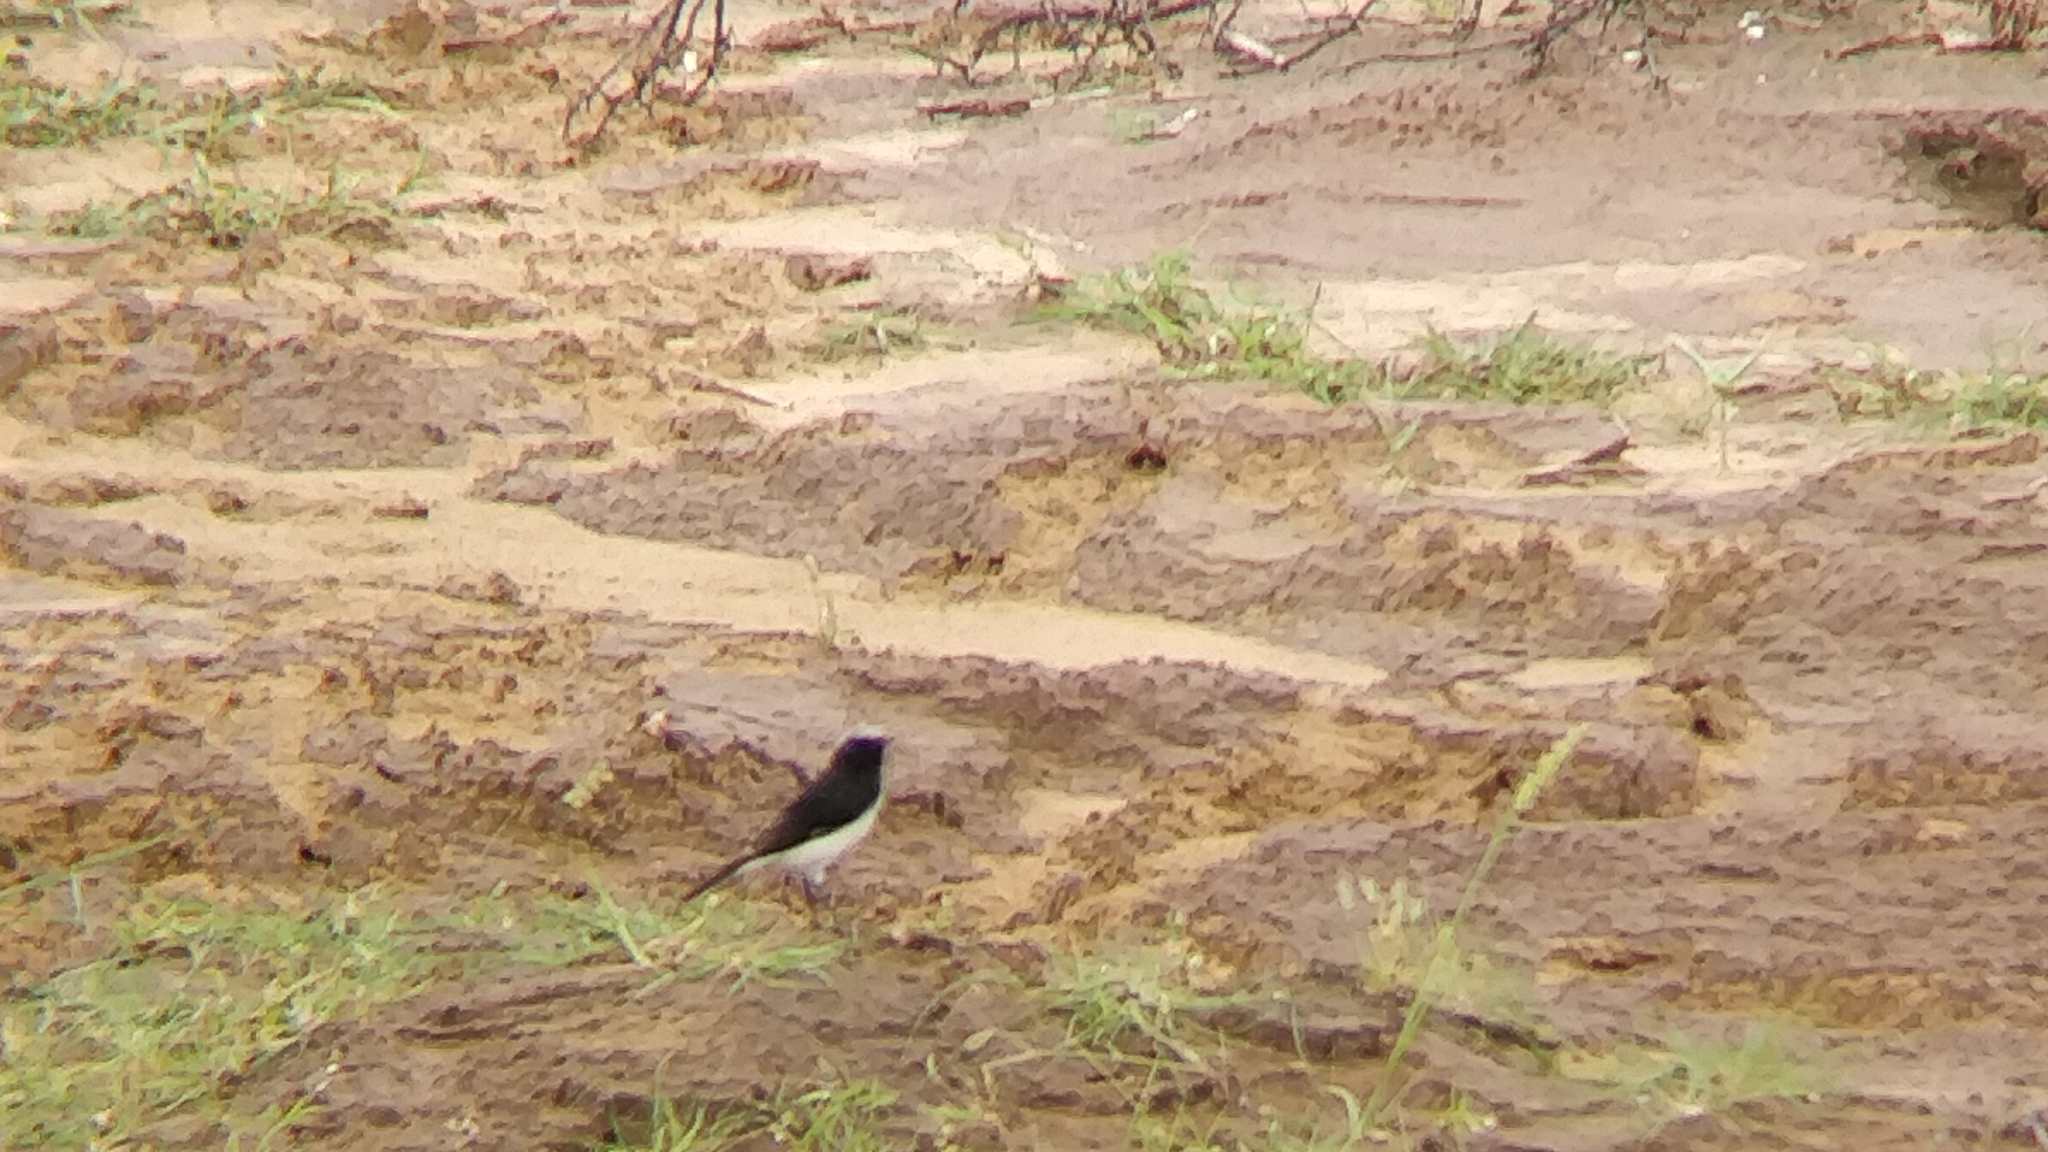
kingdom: Animalia
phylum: Chordata
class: Aves
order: Passeriformes
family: Muscicapidae
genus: Oenanthe
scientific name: Oenanthe picata
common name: Variable wheatear
